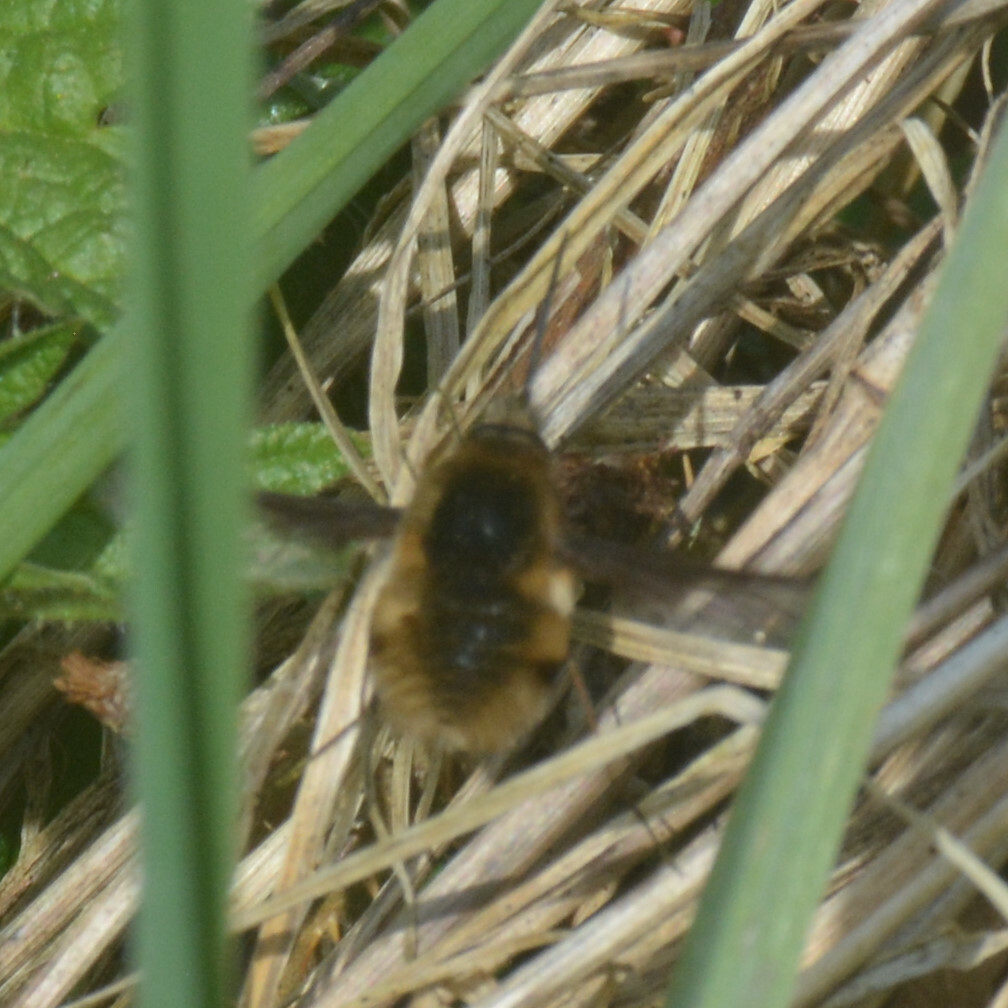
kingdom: Animalia
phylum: Arthropoda
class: Insecta
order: Diptera
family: Bombyliidae
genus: Bombylius
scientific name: Bombylius major
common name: Bee fly
